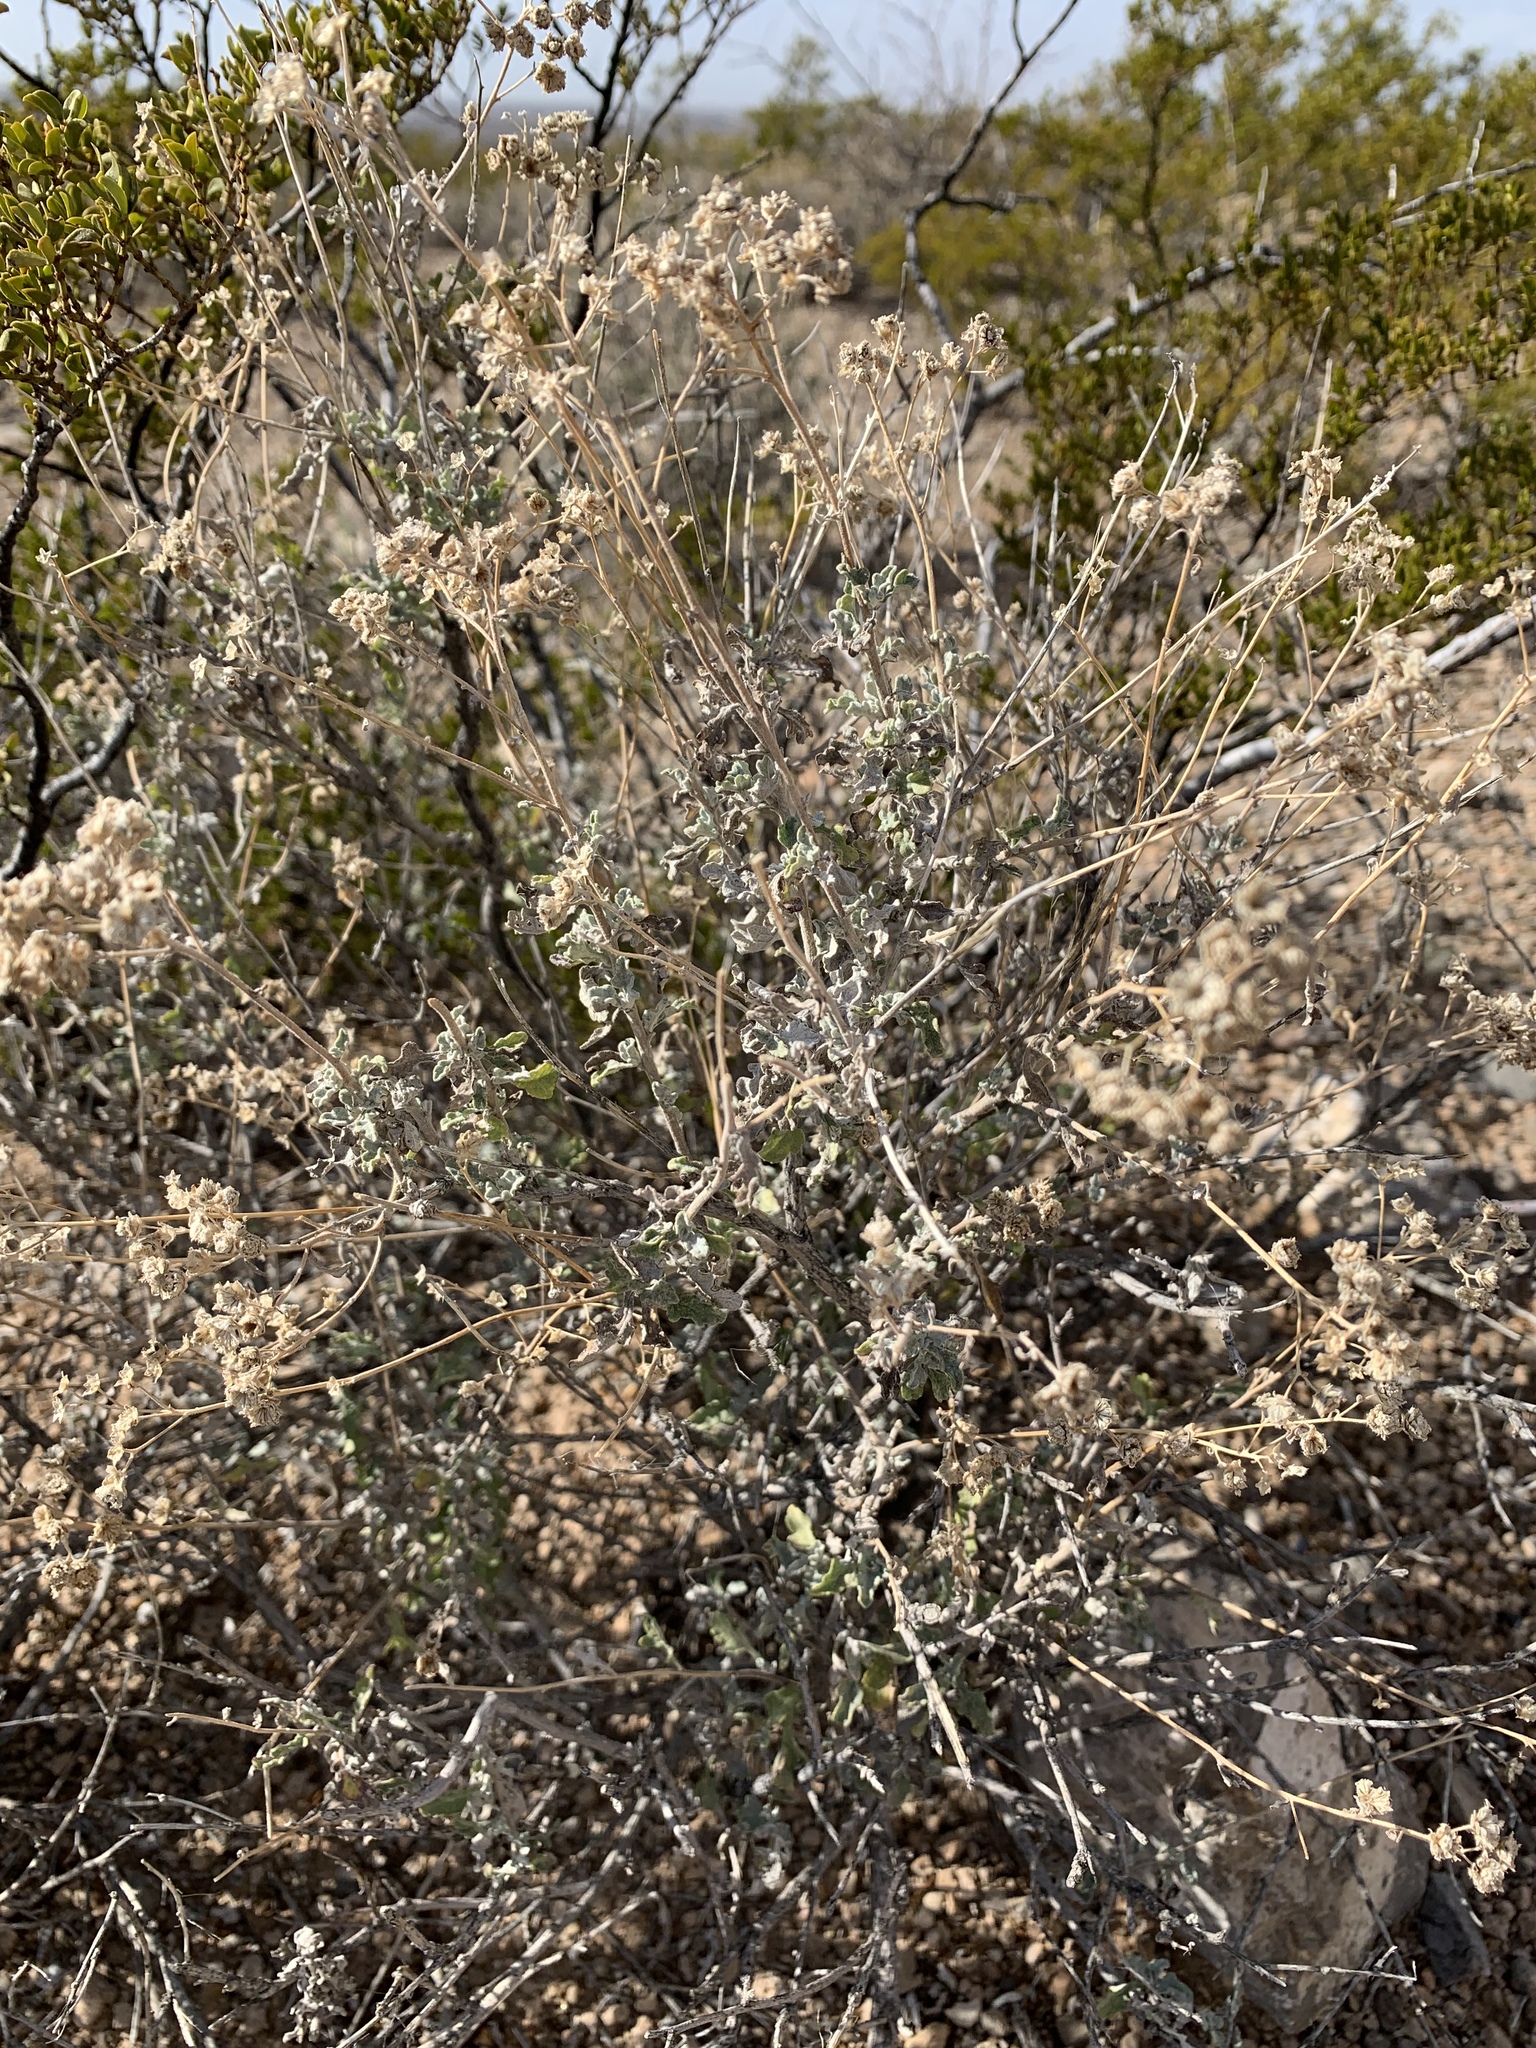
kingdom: Plantae
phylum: Tracheophyta
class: Magnoliopsida
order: Asterales
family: Asteraceae
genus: Parthenium
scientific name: Parthenium incanum
